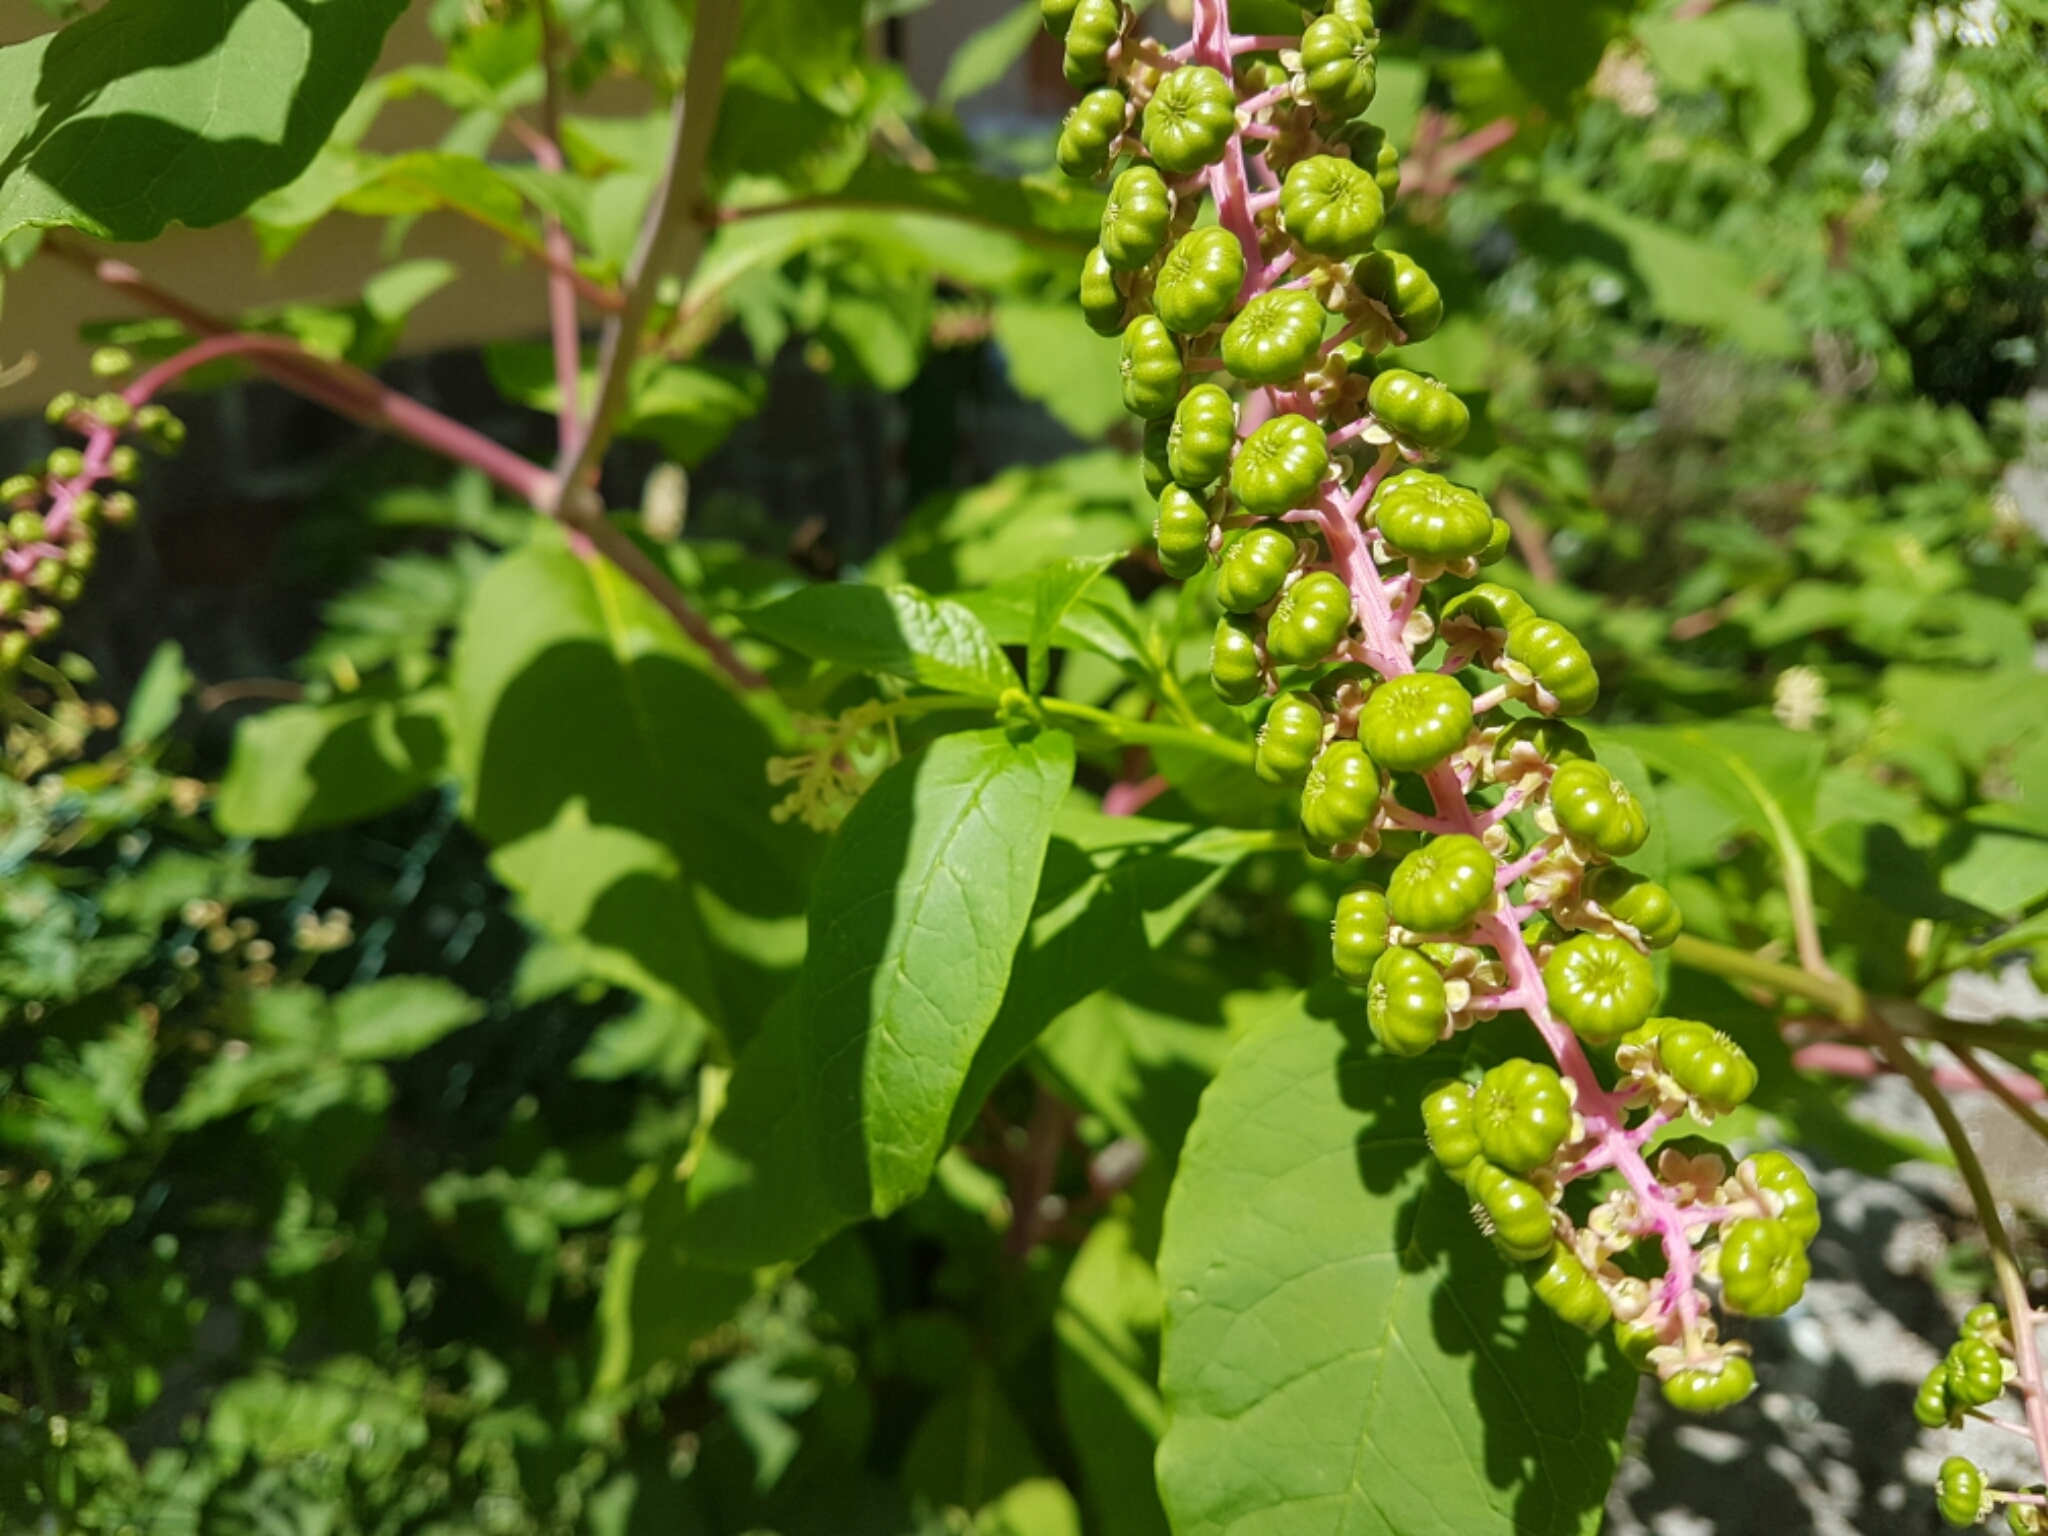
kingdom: Plantae
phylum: Tracheophyta
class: Magnoliopsida
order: Caryophyllales
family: Phytolaccaceae
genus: Phytolacca
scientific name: Phytolacca americana
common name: American pokeweed
